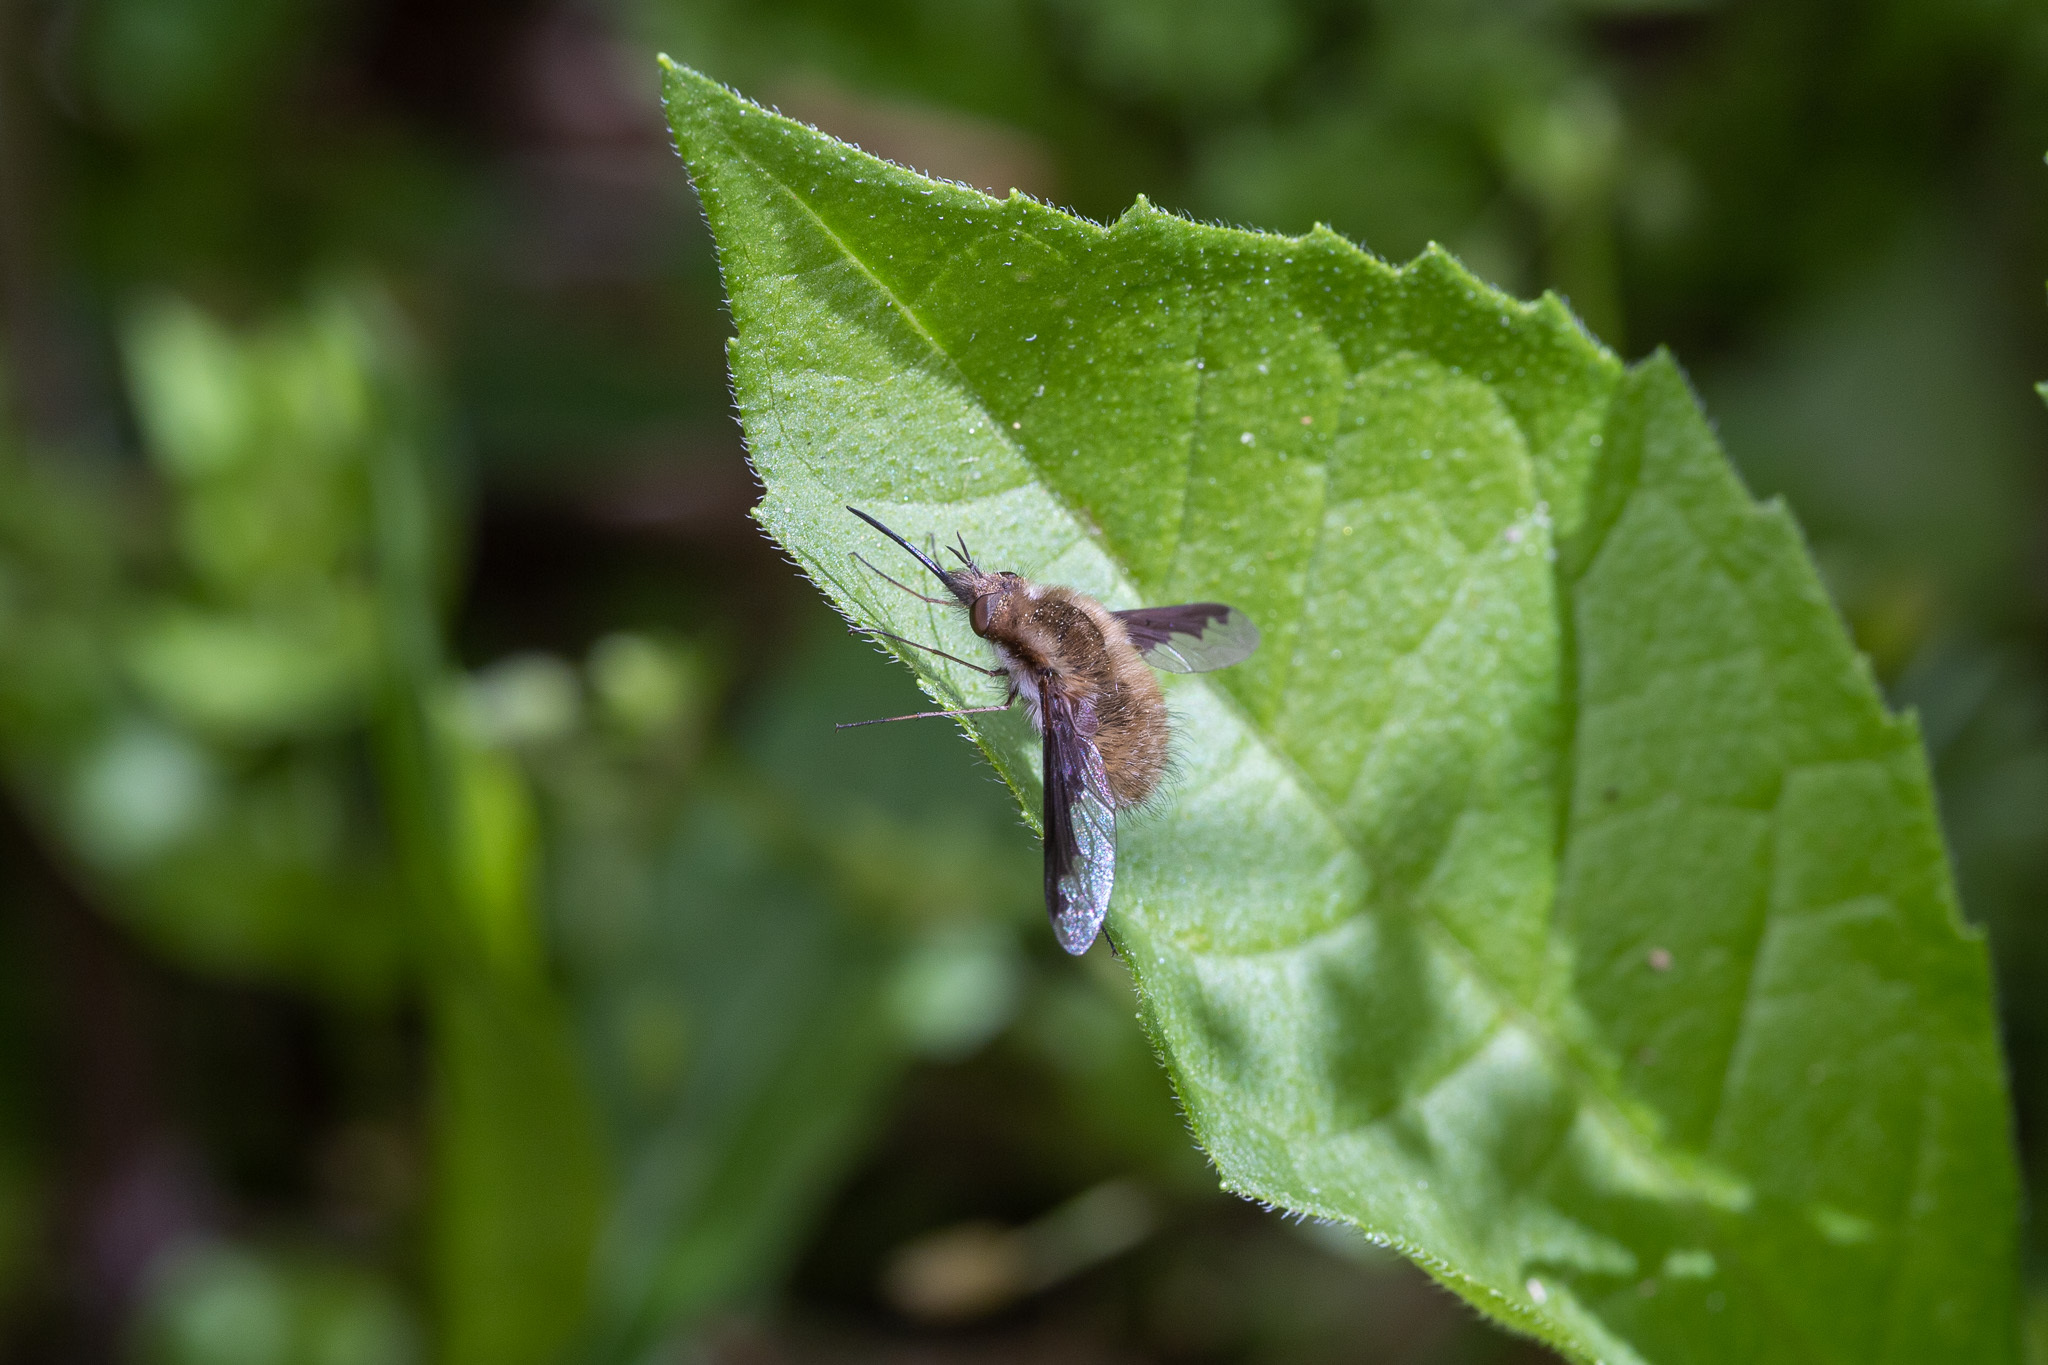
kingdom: Animalia
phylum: Arthropoda
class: Insecta
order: Diptera
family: Bombyliidae
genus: Bombylius
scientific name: Bombylius major
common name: Bee fly
